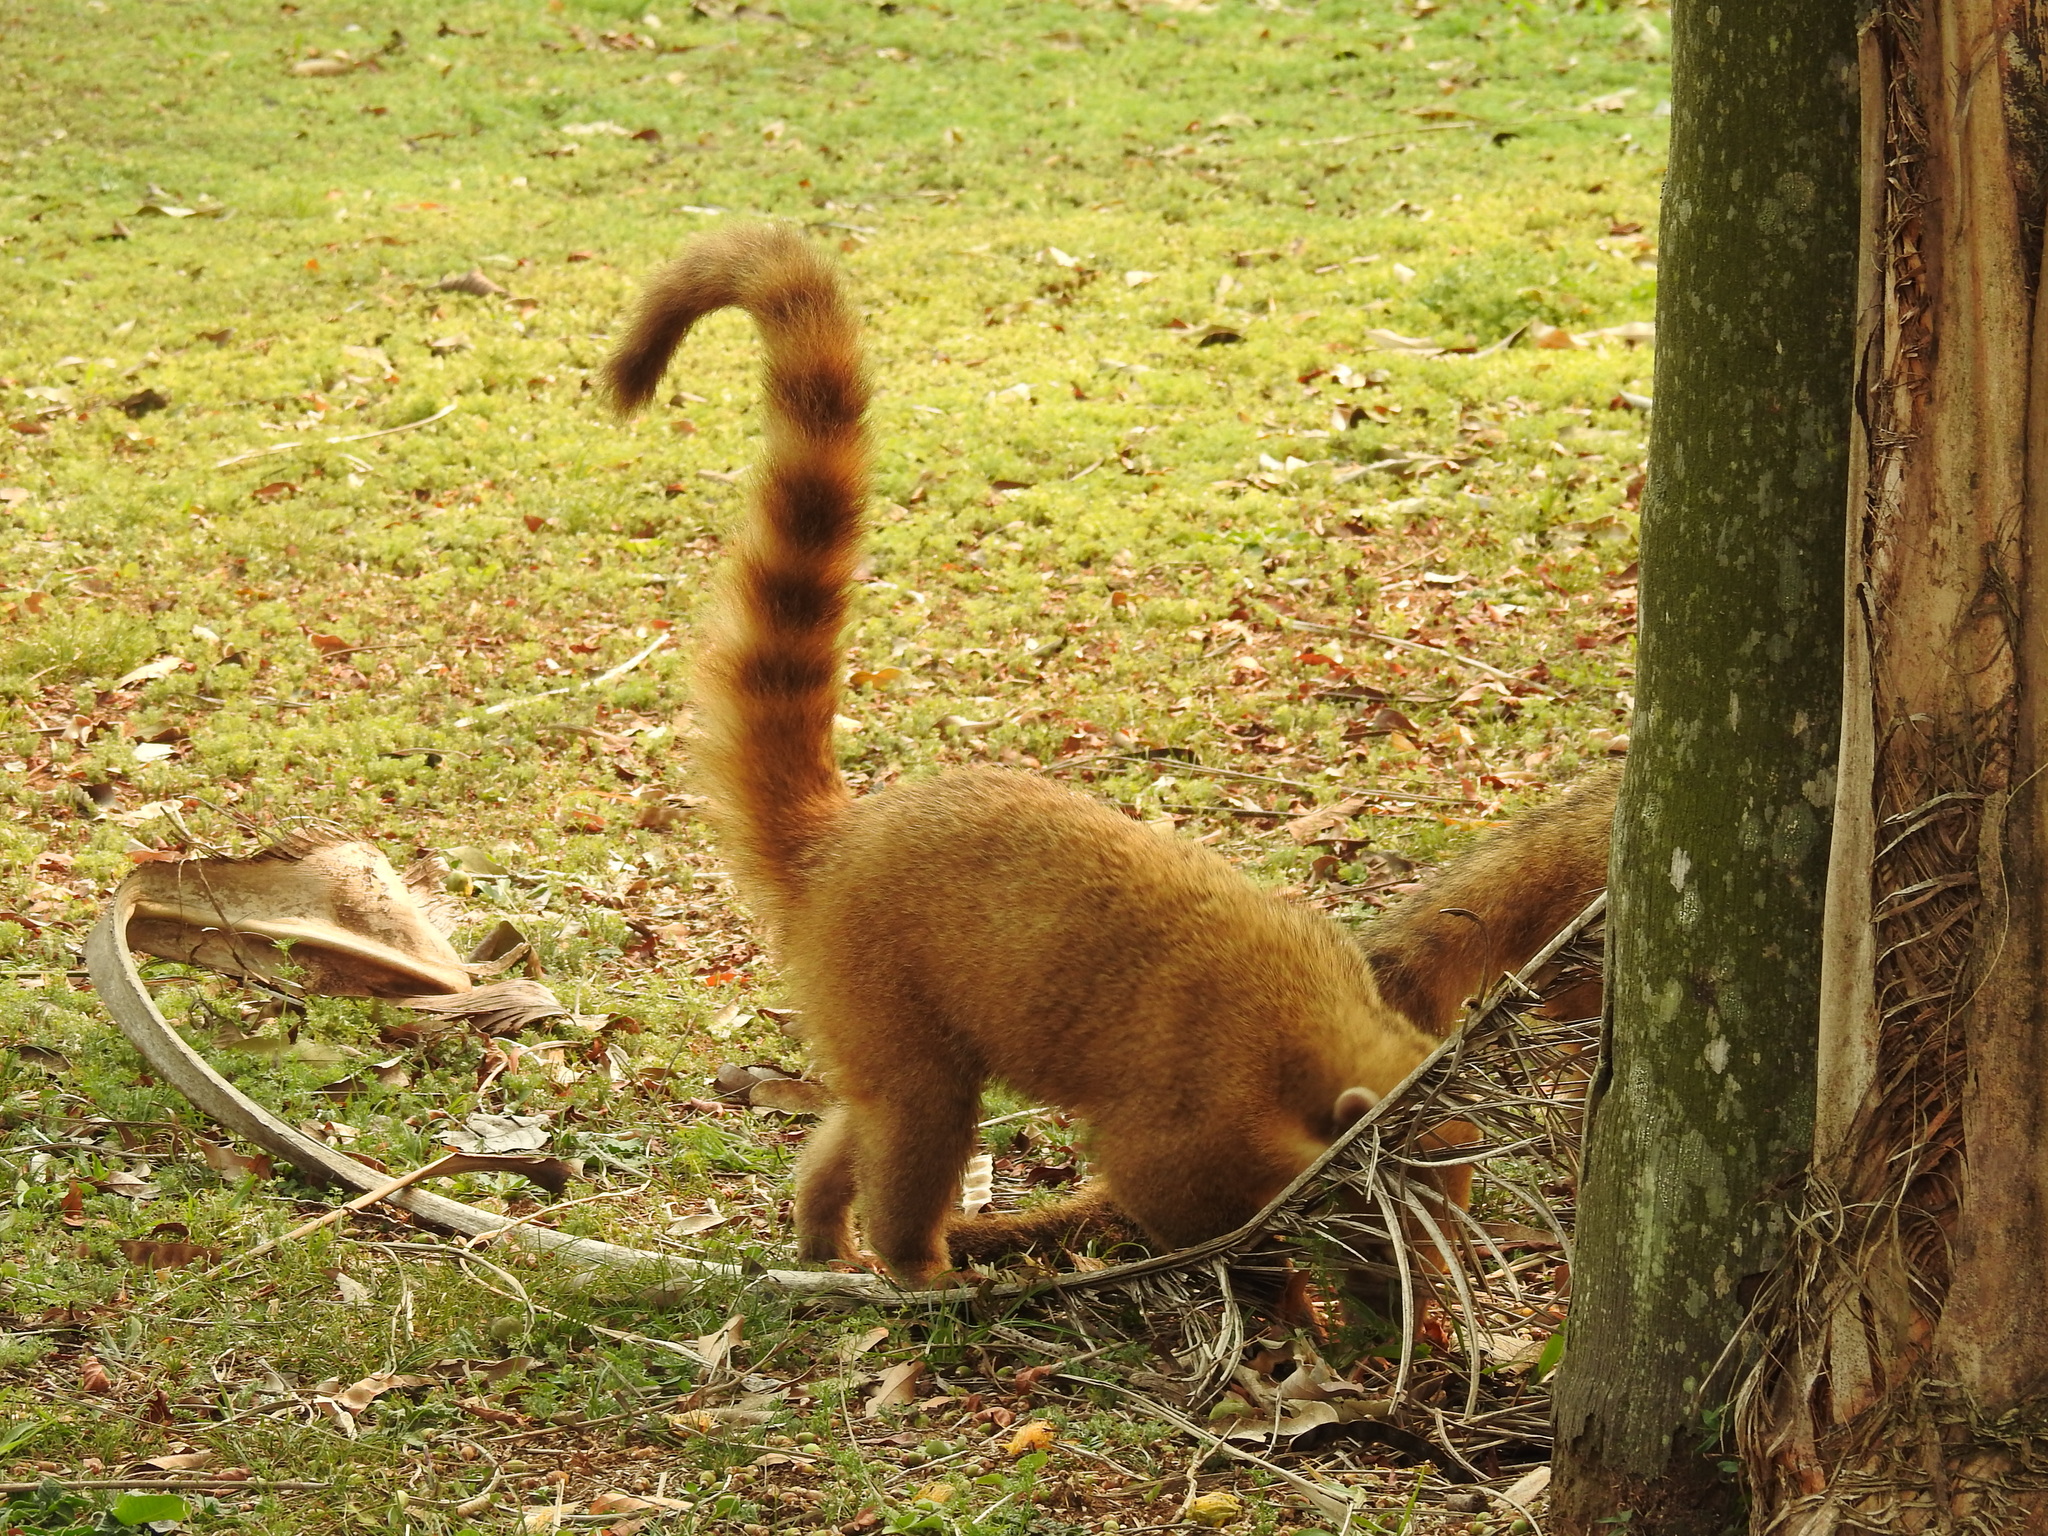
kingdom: Animalia
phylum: Chordata
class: Mammalia
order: Carnivora
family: Procyonidae
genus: Nasua
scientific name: Nasua nasua
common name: South american coati
